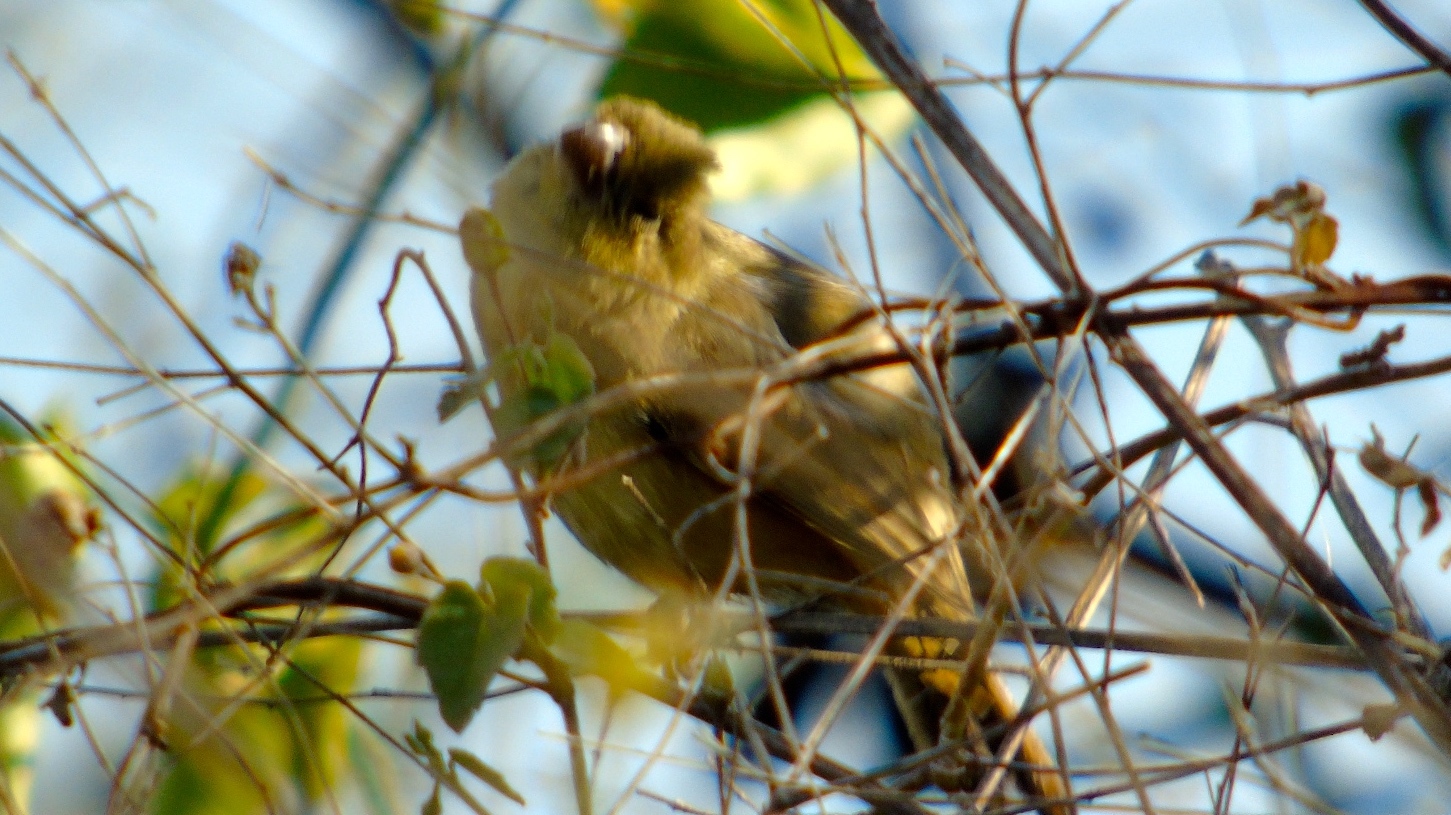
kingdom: Animalia
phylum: Chordata
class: Aves
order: Passeriformes
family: Thraupidae
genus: Sporophila
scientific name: Sporophila torqueola
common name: White-collared seedeater
